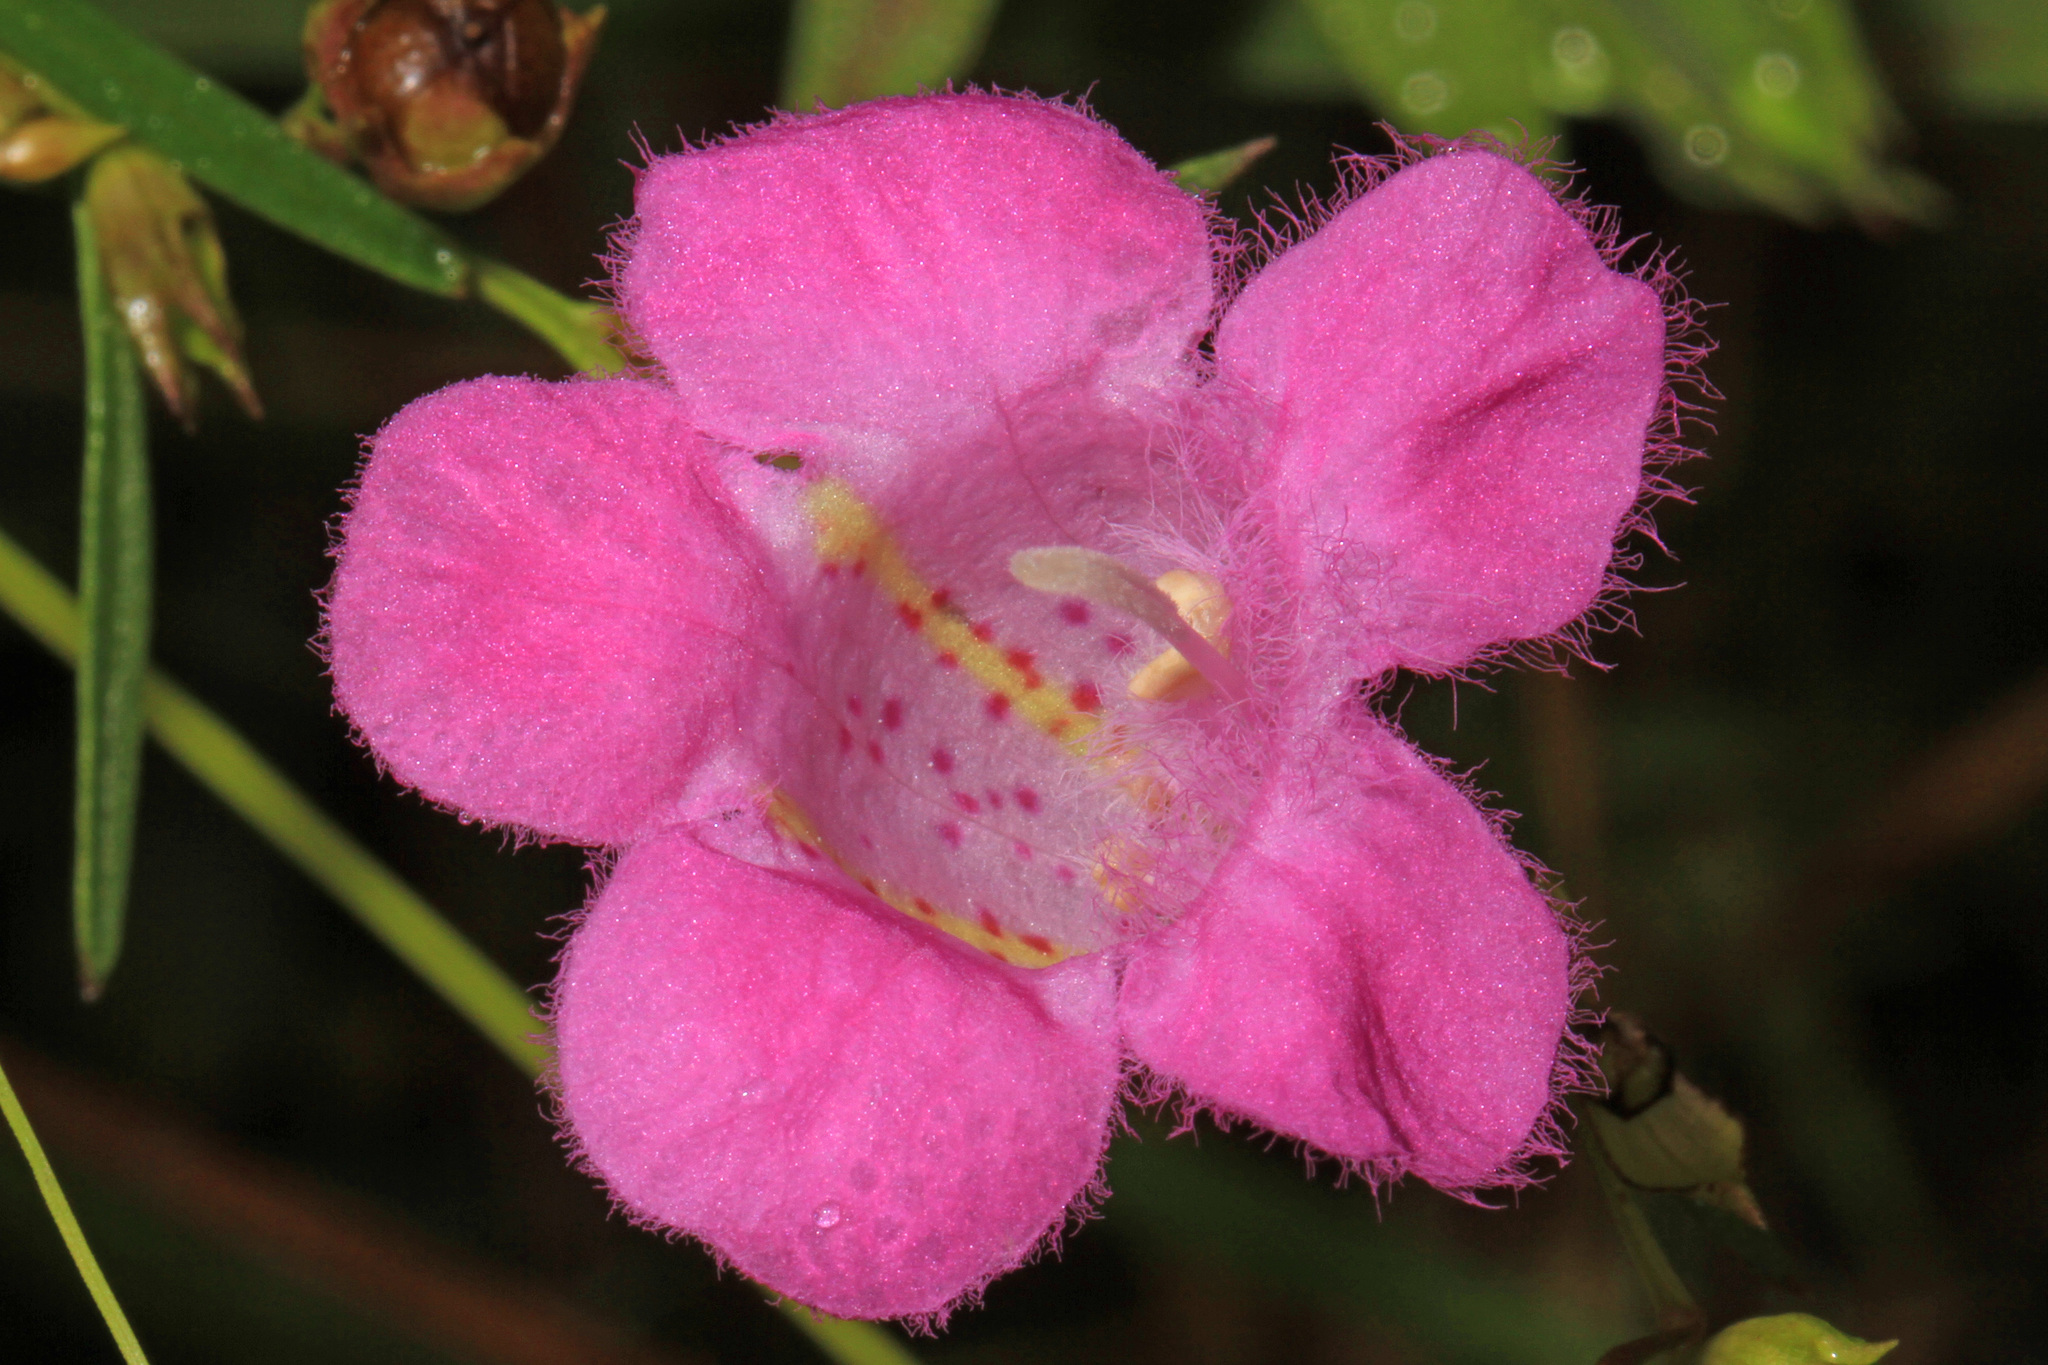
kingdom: Plantae
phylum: Tracheophyta
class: Magnoliopsida
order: Lamiales
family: Orobanchaceae
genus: Agalinis
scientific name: Agalinis purpurea
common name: Purple false foxglove
